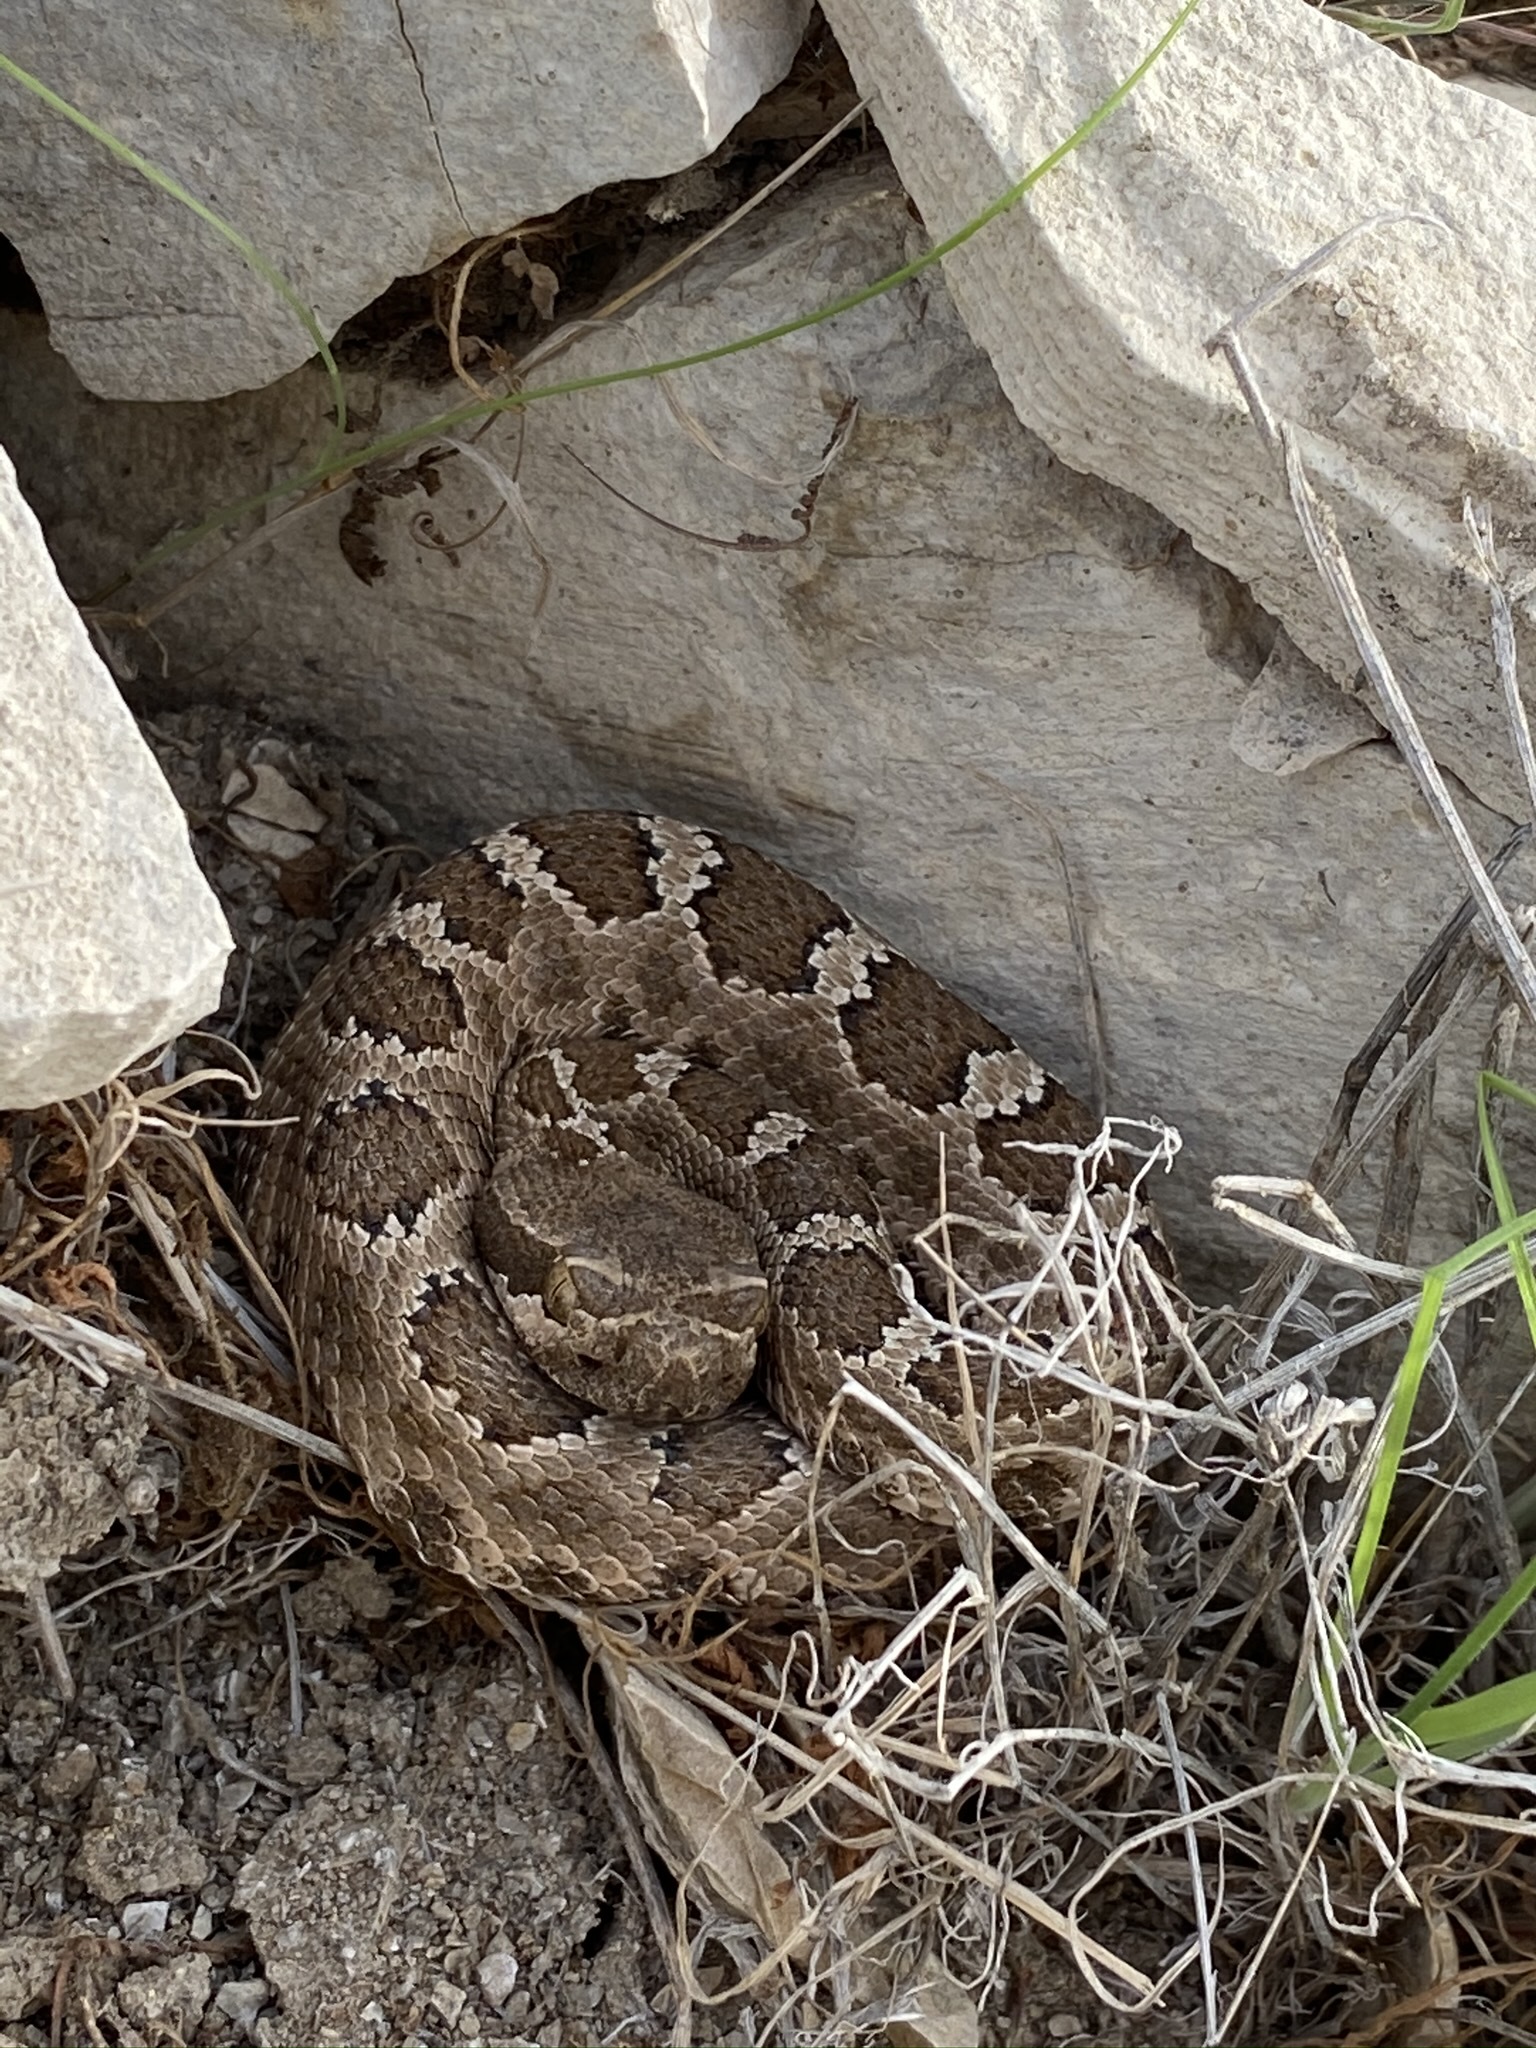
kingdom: Animalia
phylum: Chordata
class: Squamata
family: Viperidae
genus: Crotalus
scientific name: Crotalus oreganus
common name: Abyssus
